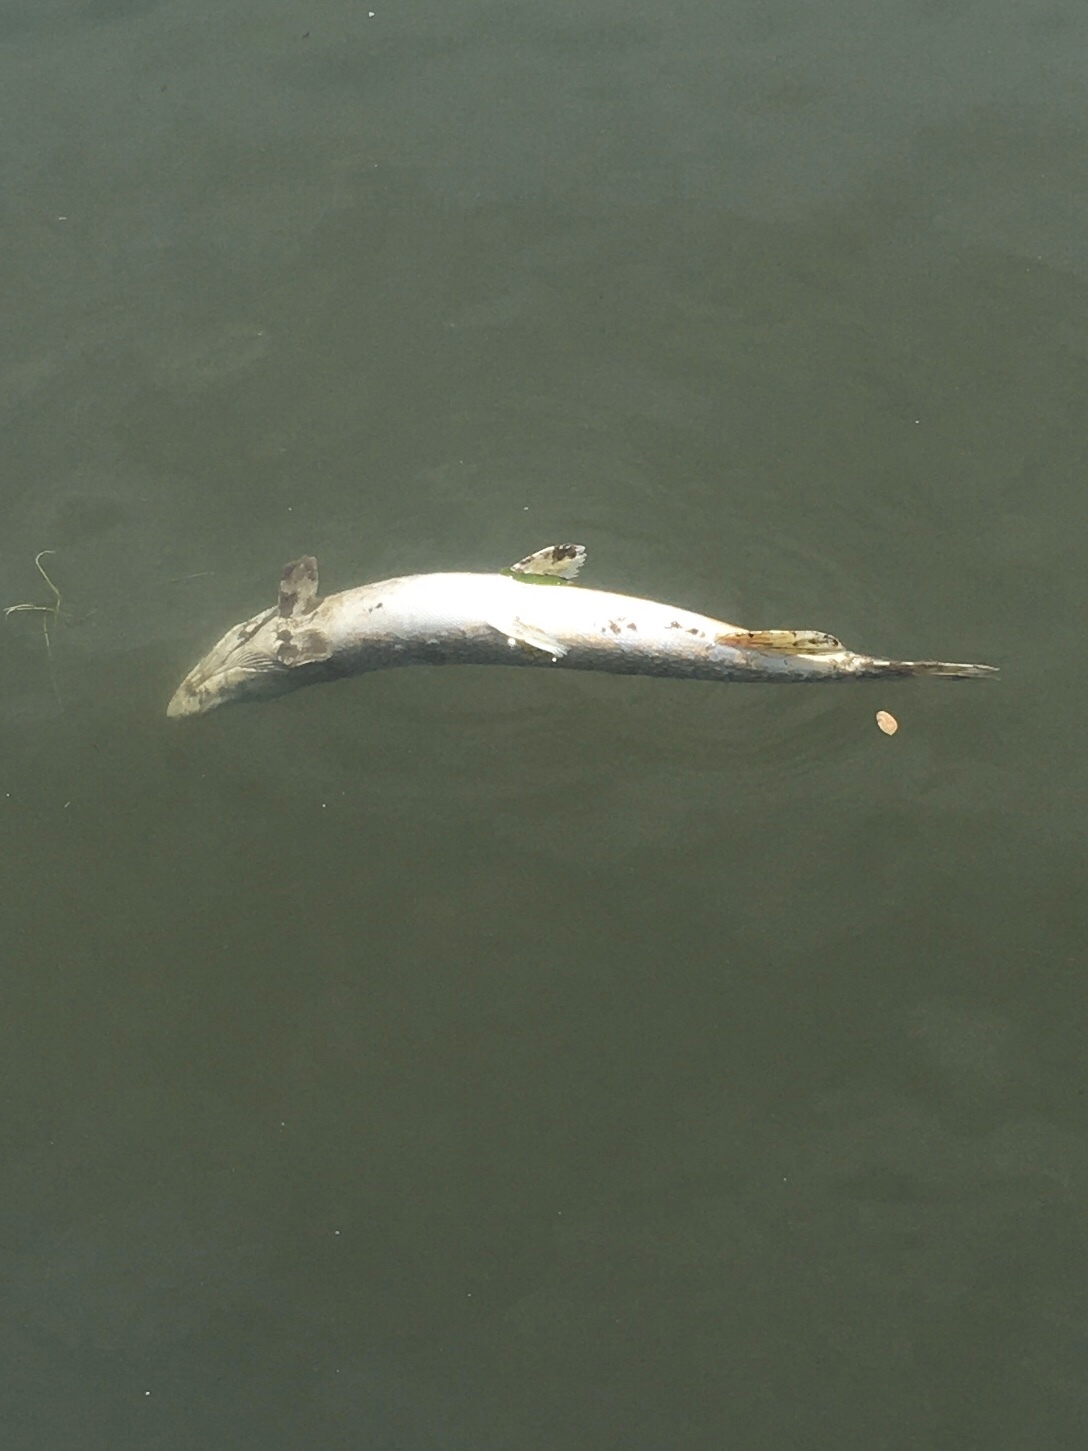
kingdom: Animalia
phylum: Chordata
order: Esociformes
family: Esocidae
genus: Esox
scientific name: Esox lucius
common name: Northern pike
